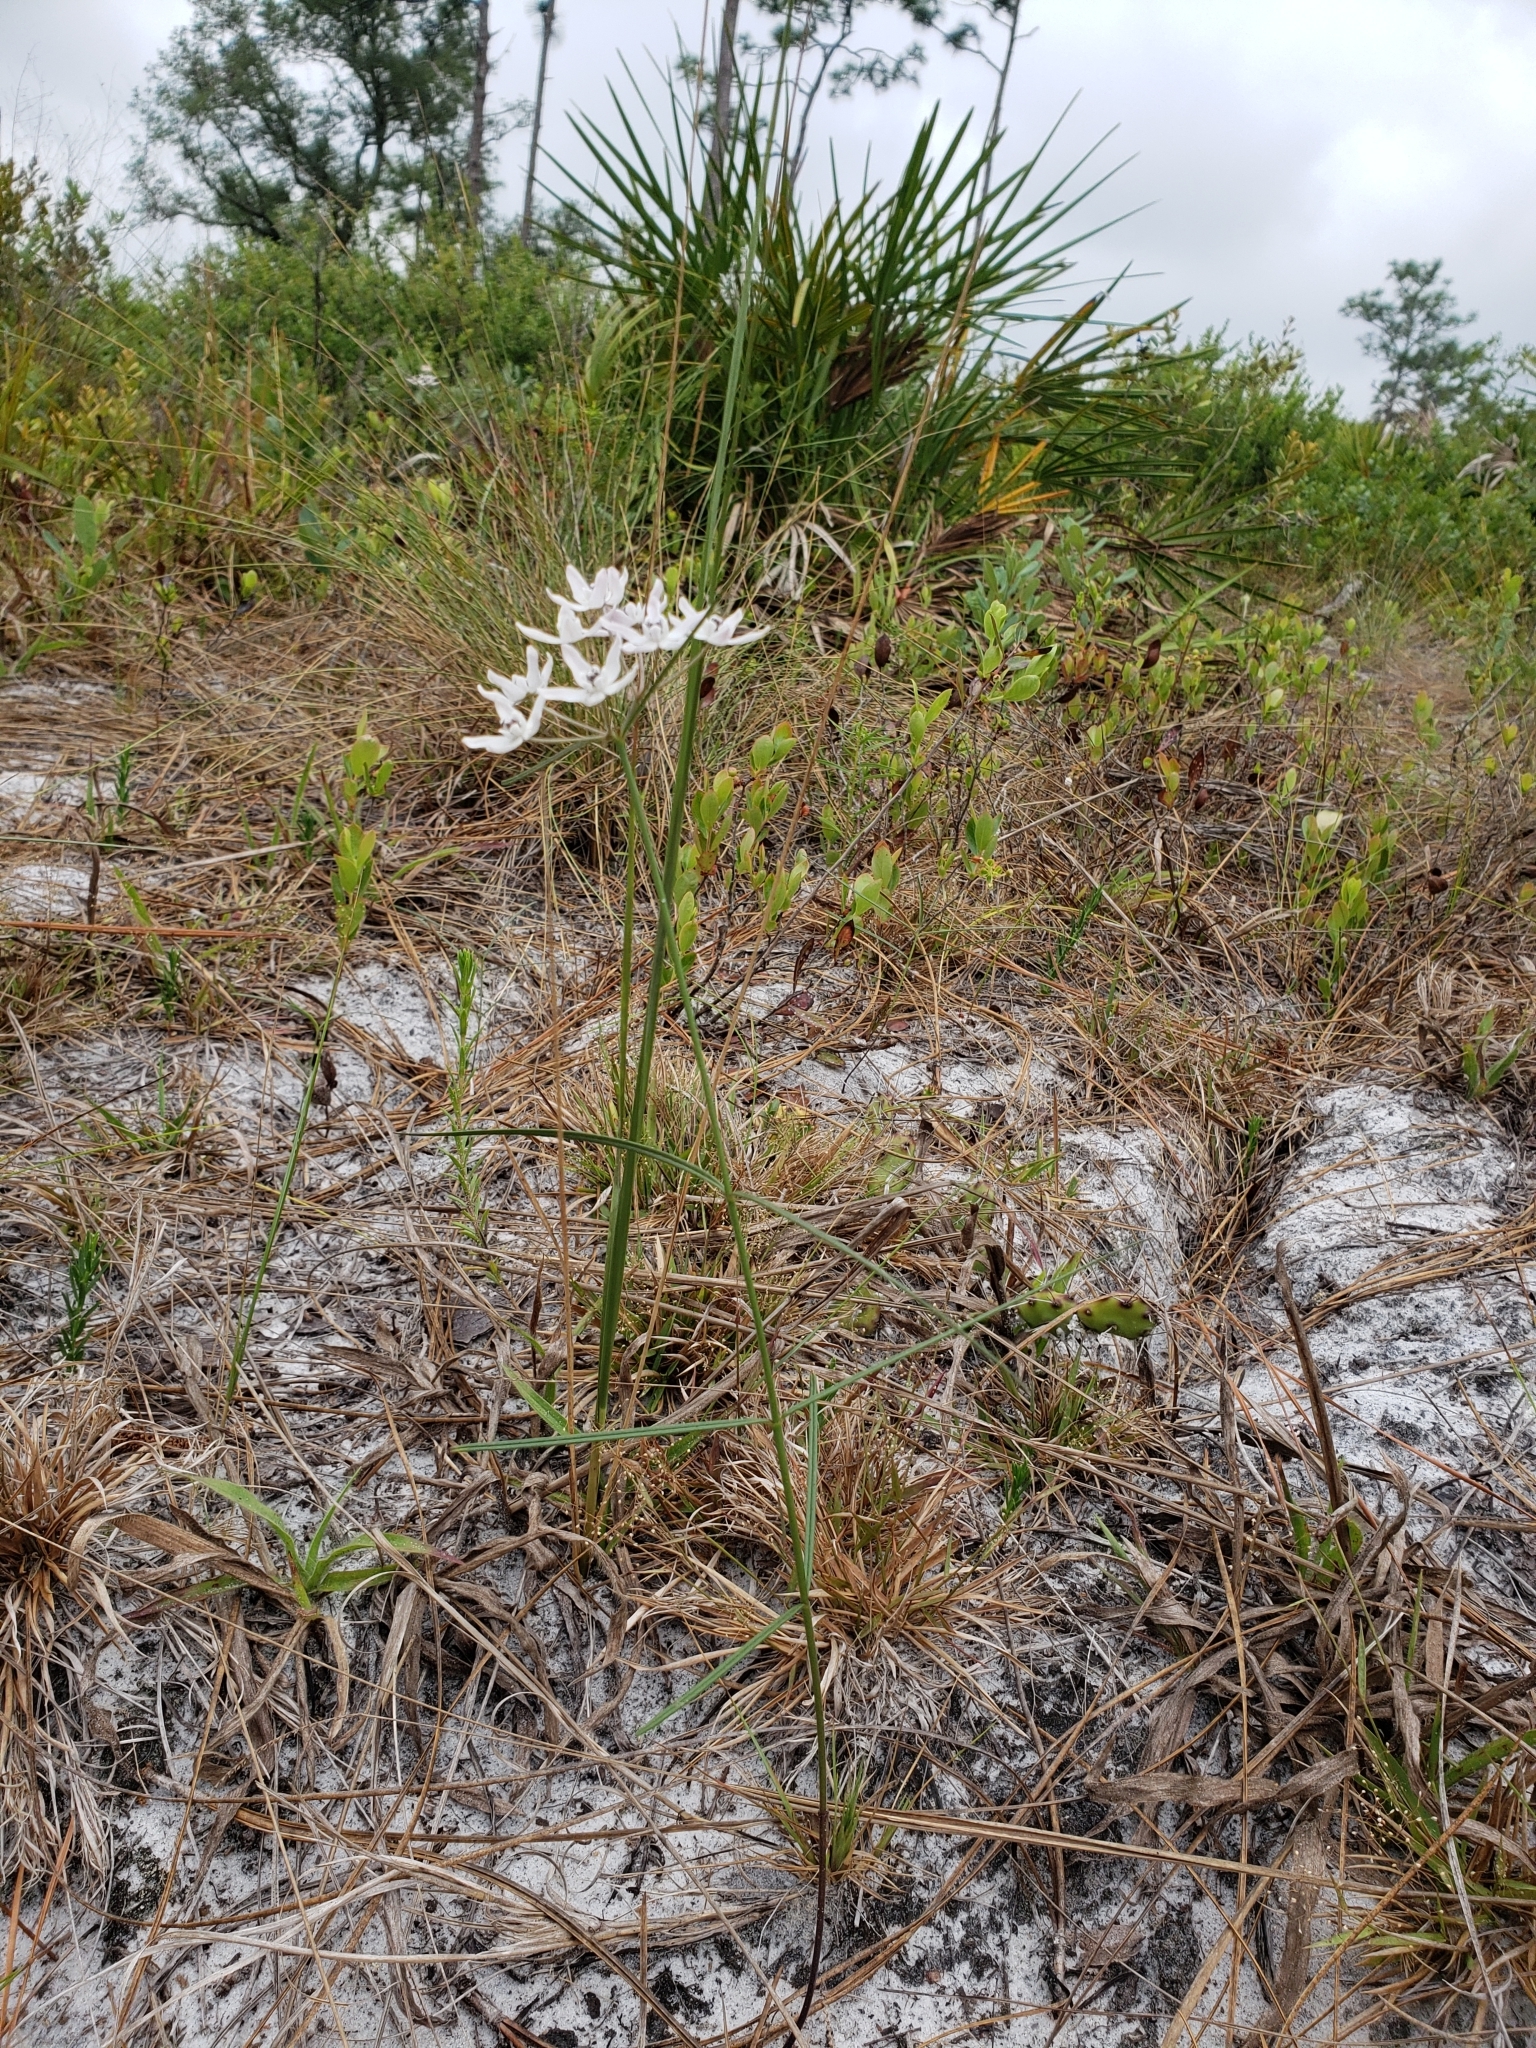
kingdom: Plantae
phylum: Tracheophyta
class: Magnoliopsida
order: Gentianales
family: Apocynaceae
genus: Asclepias
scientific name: Asclepias feayi
